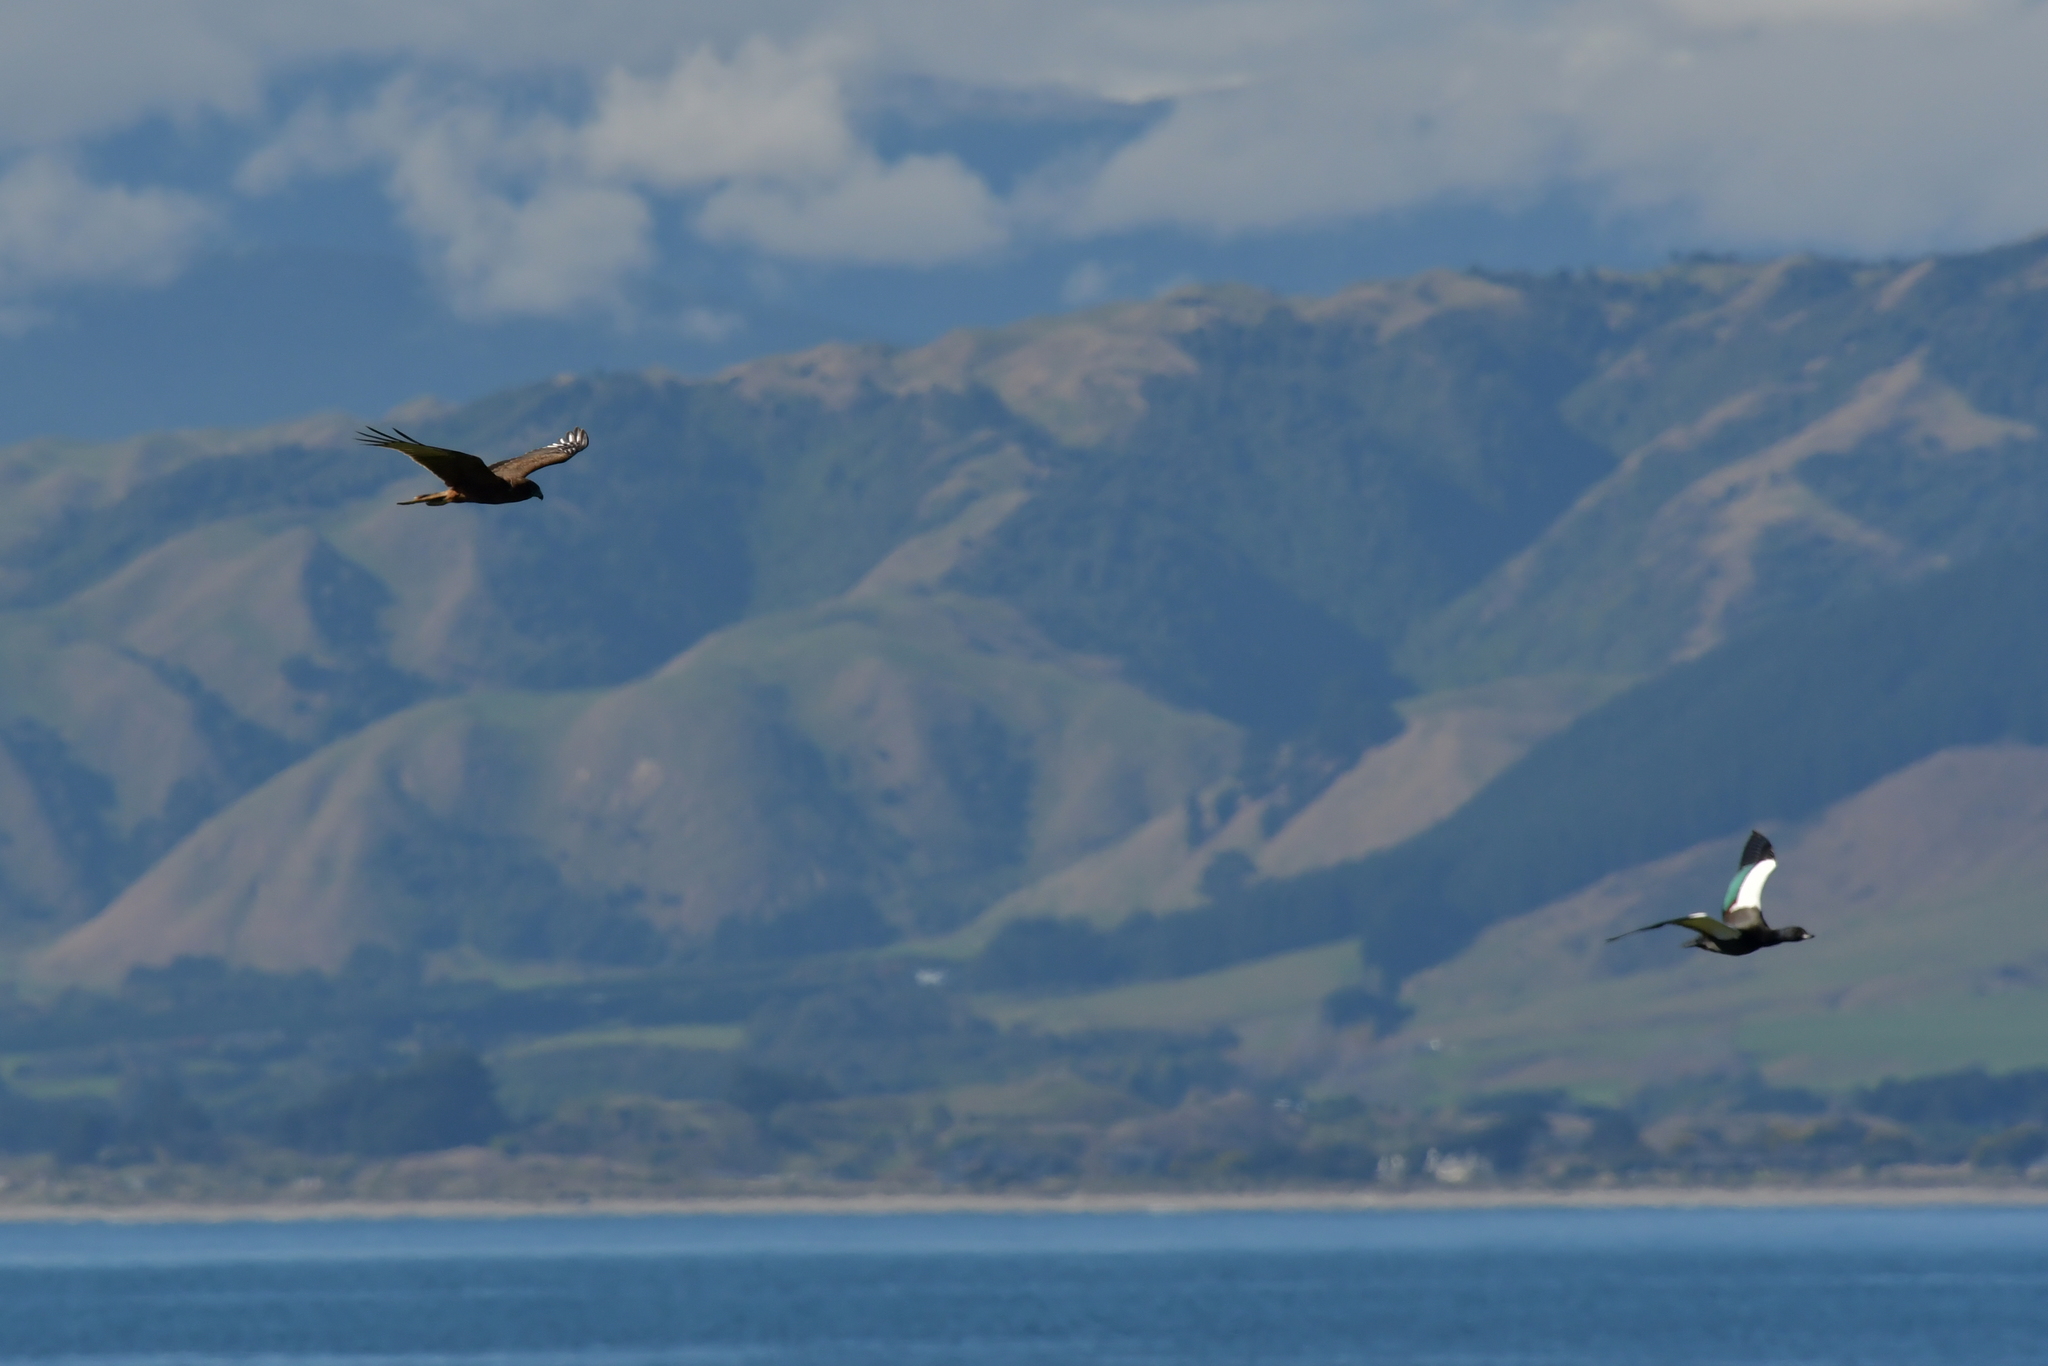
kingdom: Animalia
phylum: Chordata
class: Aves
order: Accipitriformes
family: Accipitridae
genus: Circus
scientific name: Circus approximans
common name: Swamp harrier
